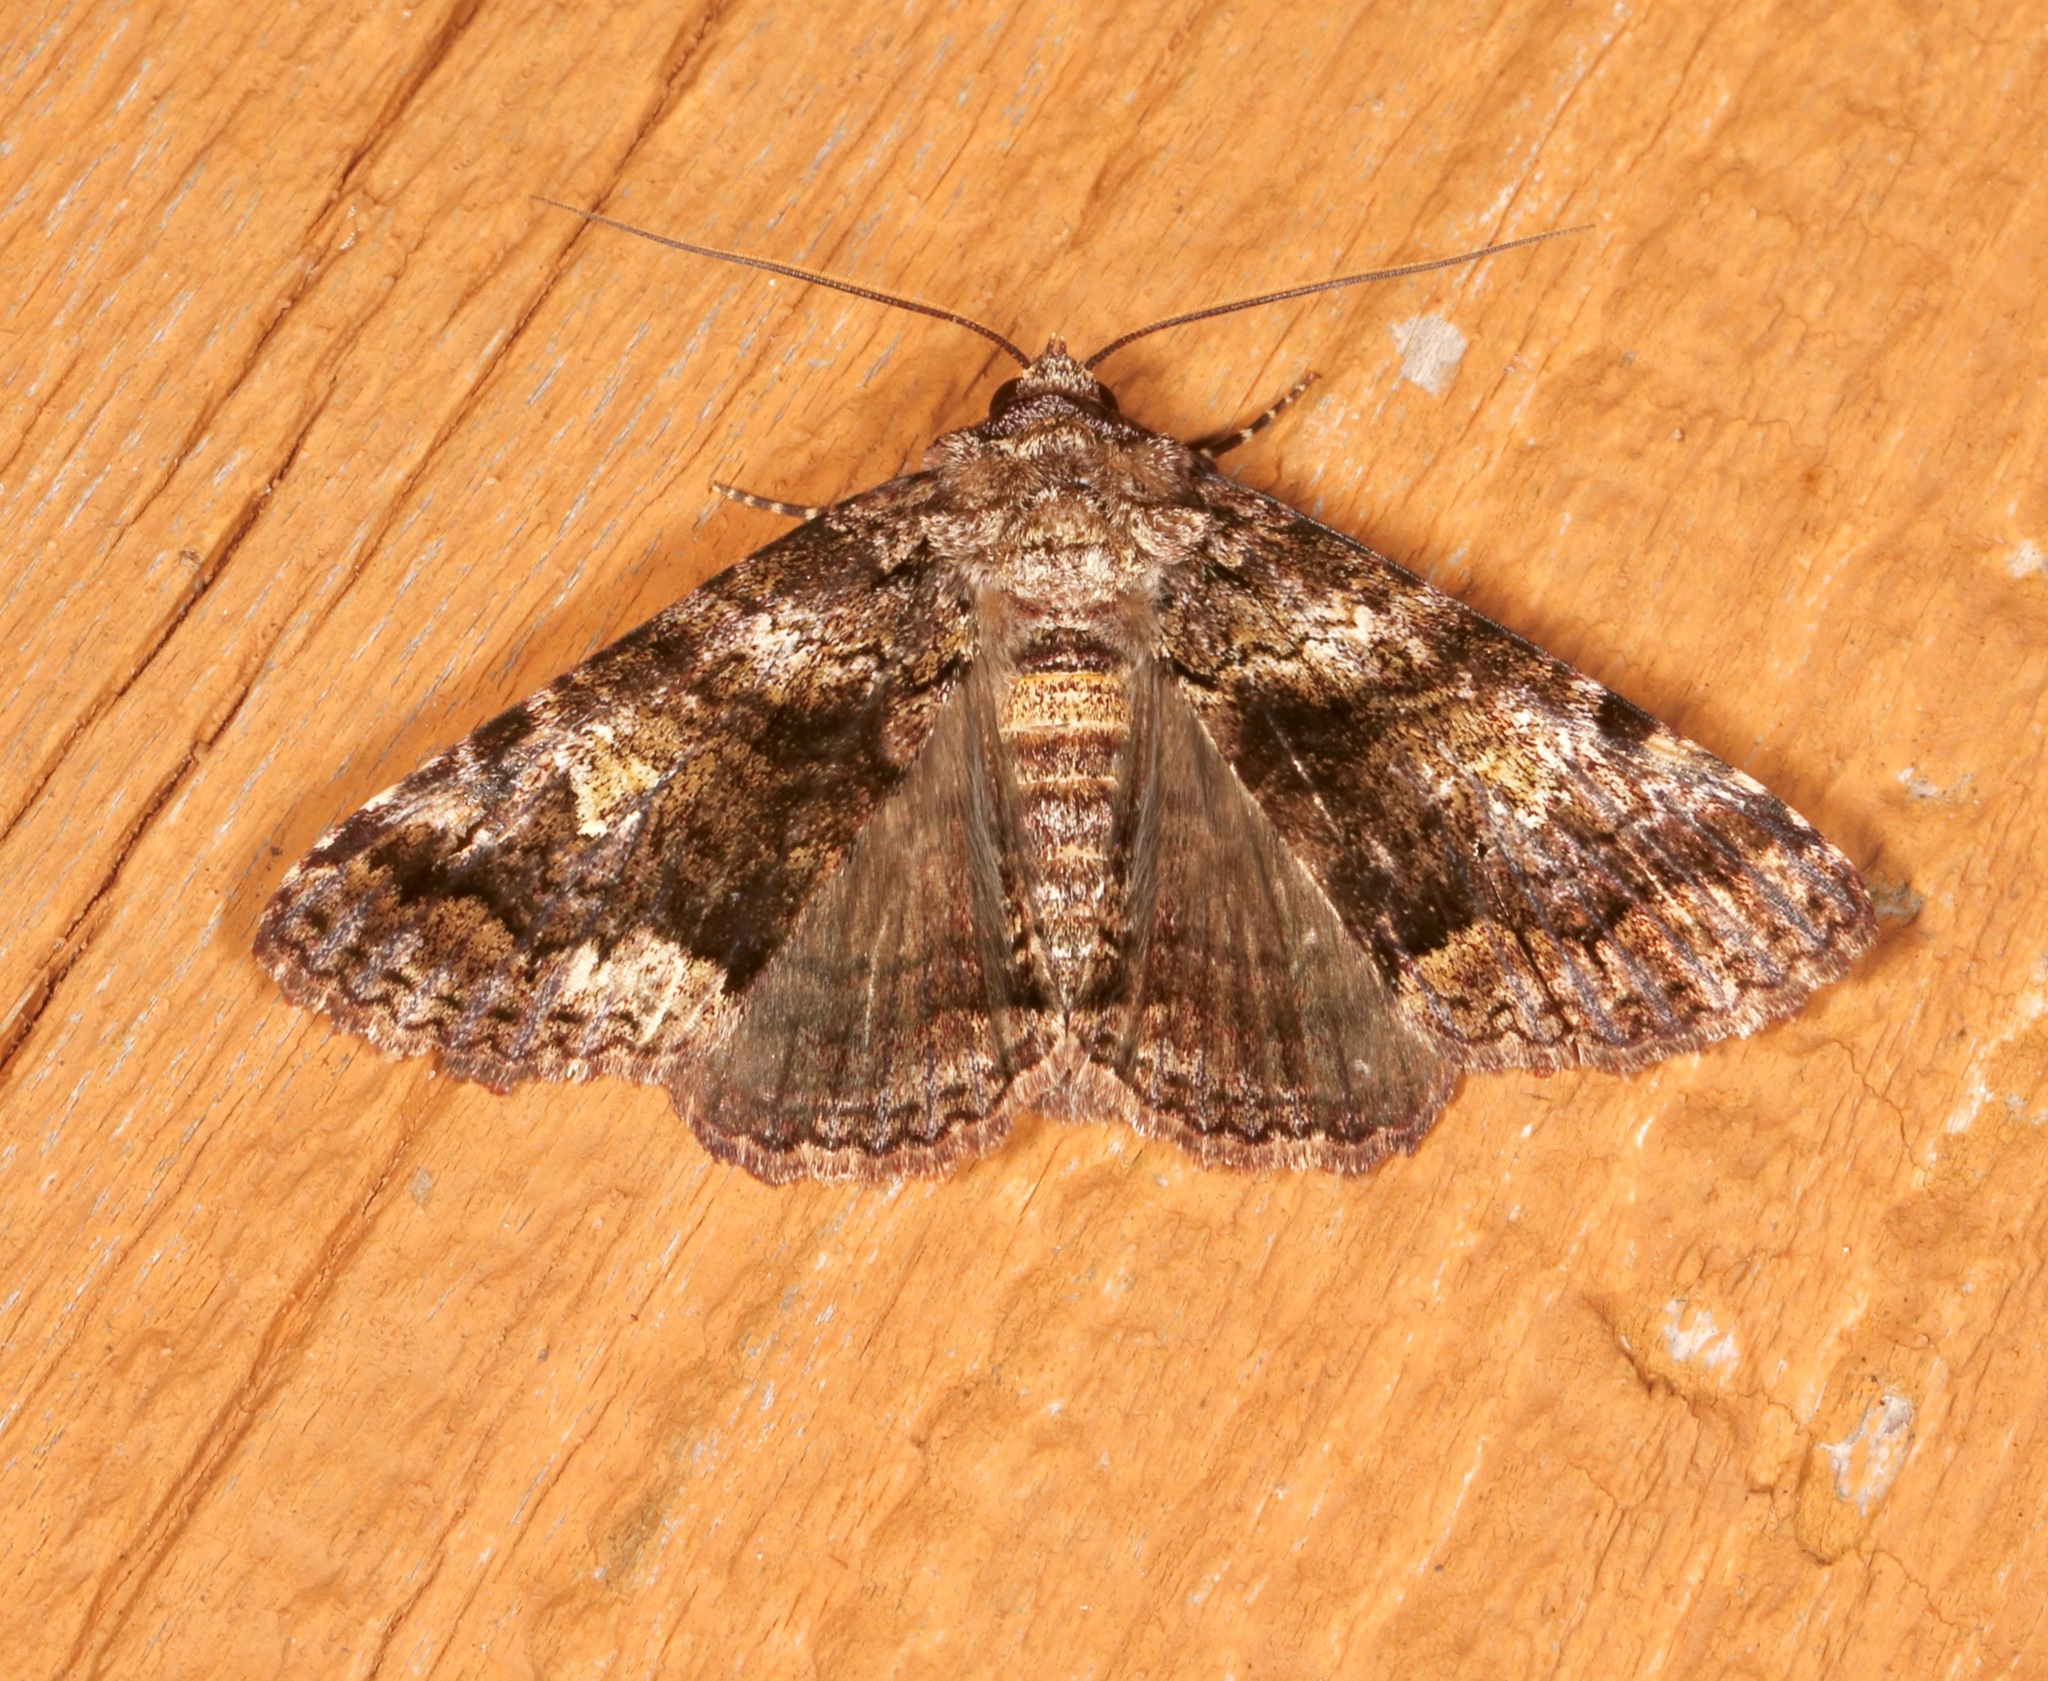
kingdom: Animalia
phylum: Arthropoda
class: Insecta
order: Lepidoptera
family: Erebidae
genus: Metria
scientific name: Metria amella
